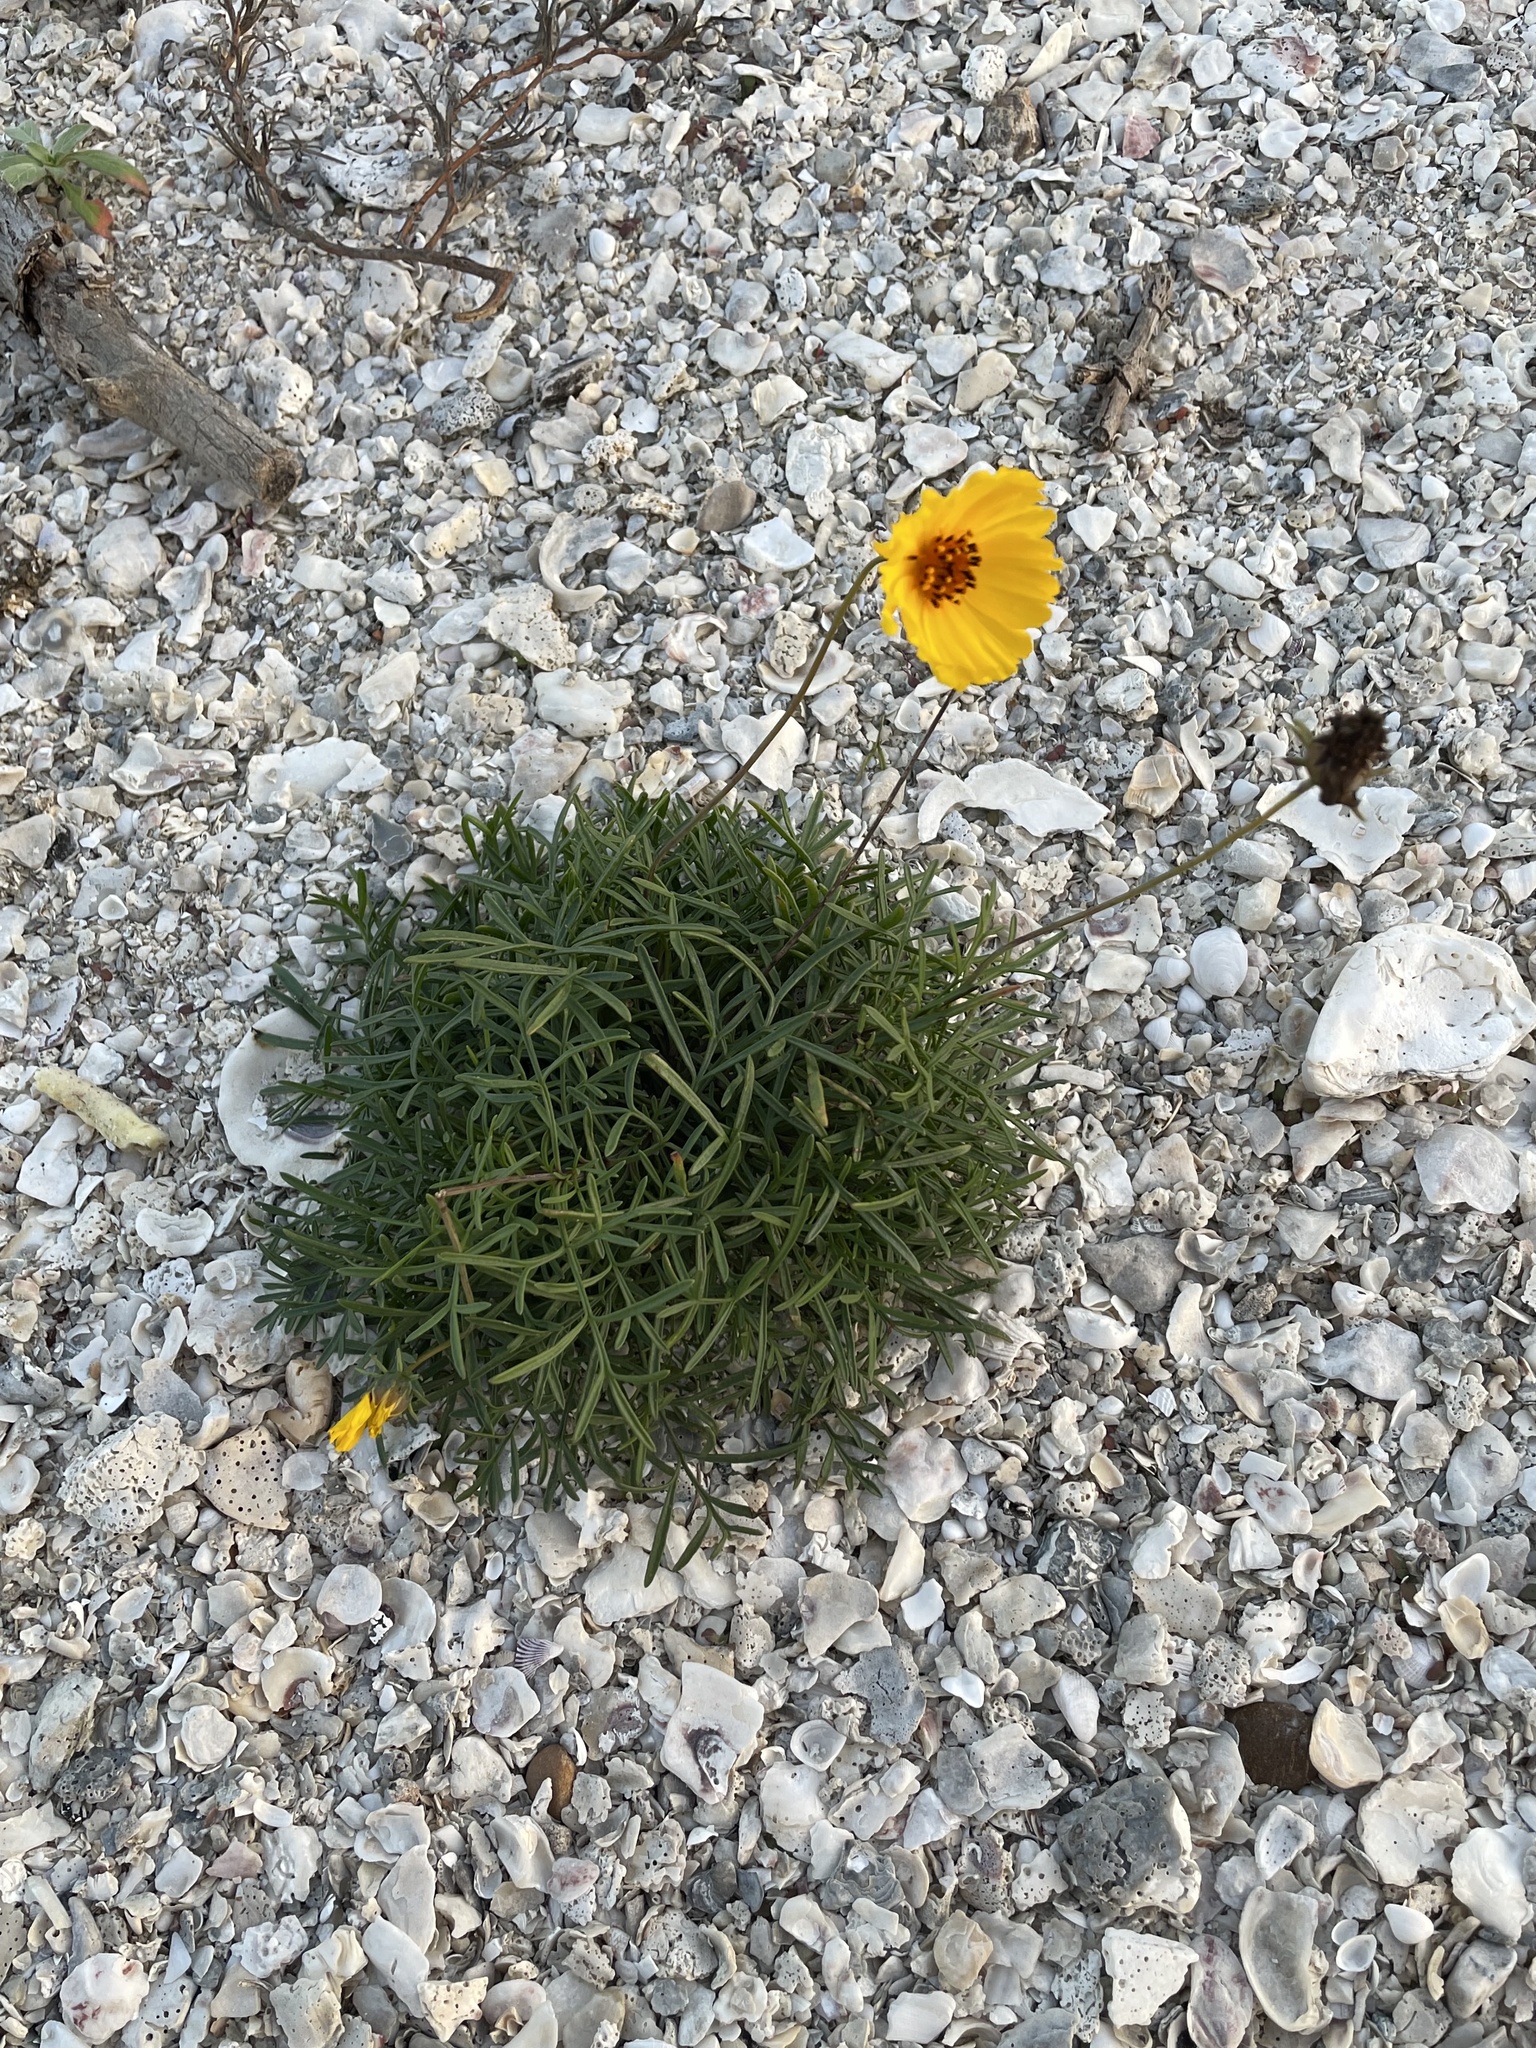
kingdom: Plantae
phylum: Tracheophyta
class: Magnoliopsida
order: Asterales
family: Asteraceae
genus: Thelesperma
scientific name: Thelesperma filifolium
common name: Stiff greenthread
